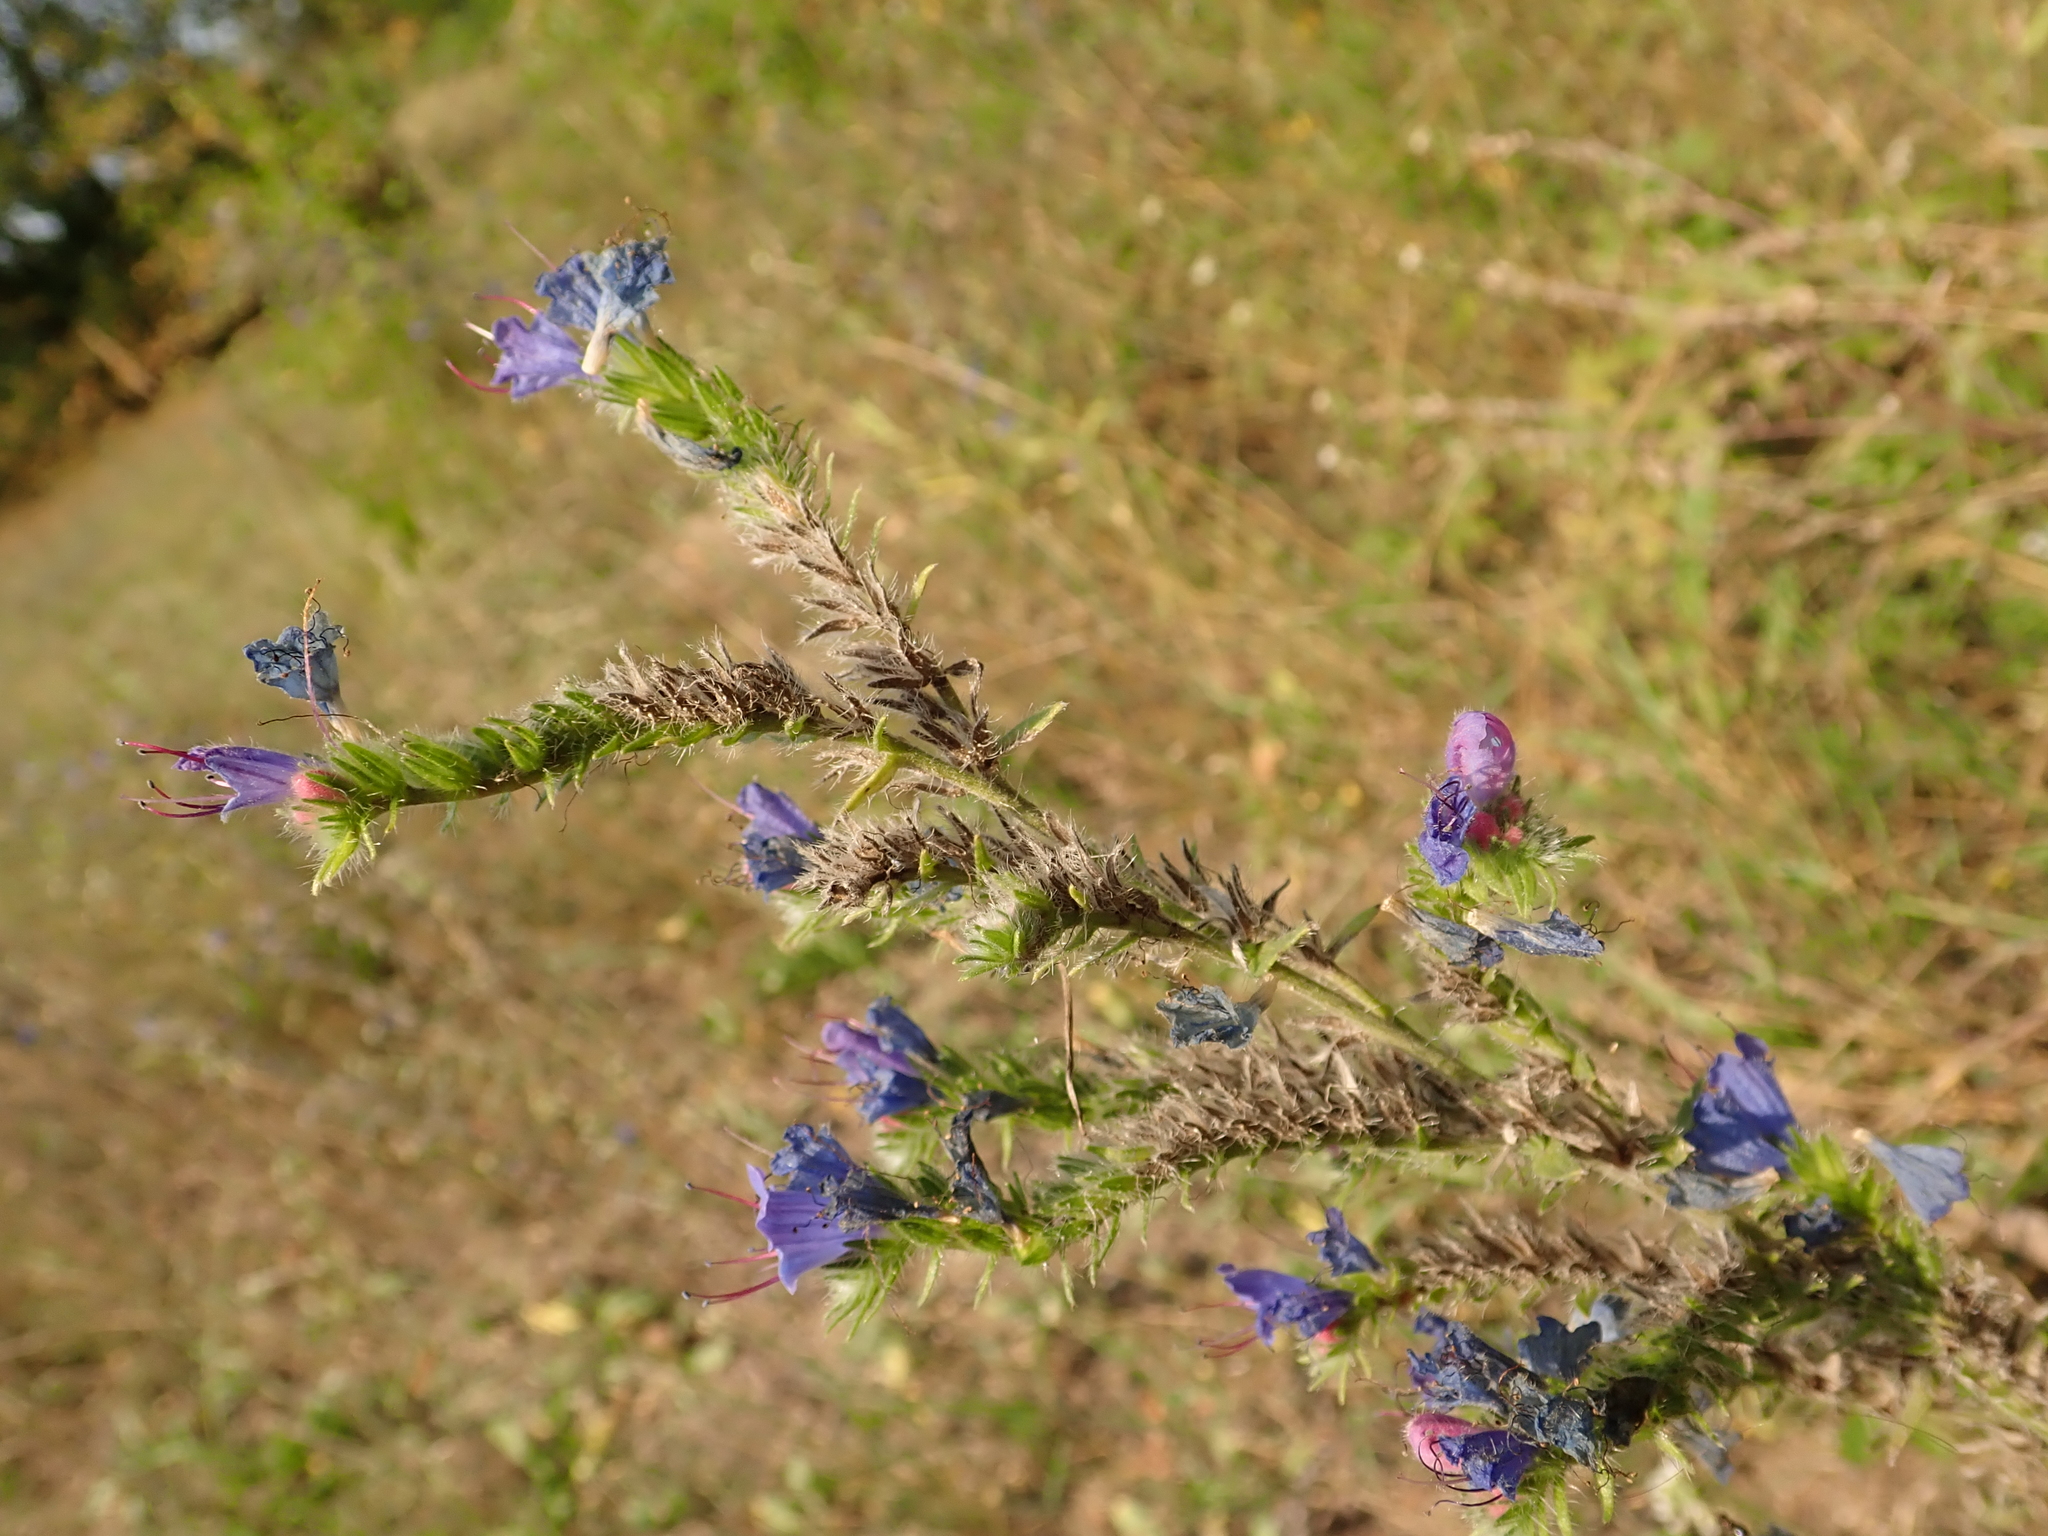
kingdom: Plantae
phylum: Tracheophyta
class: Magnoliopsida
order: Boraginales
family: Boraginaceae
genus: Echium
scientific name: Echium vulgare
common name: Common viper's bugloss
